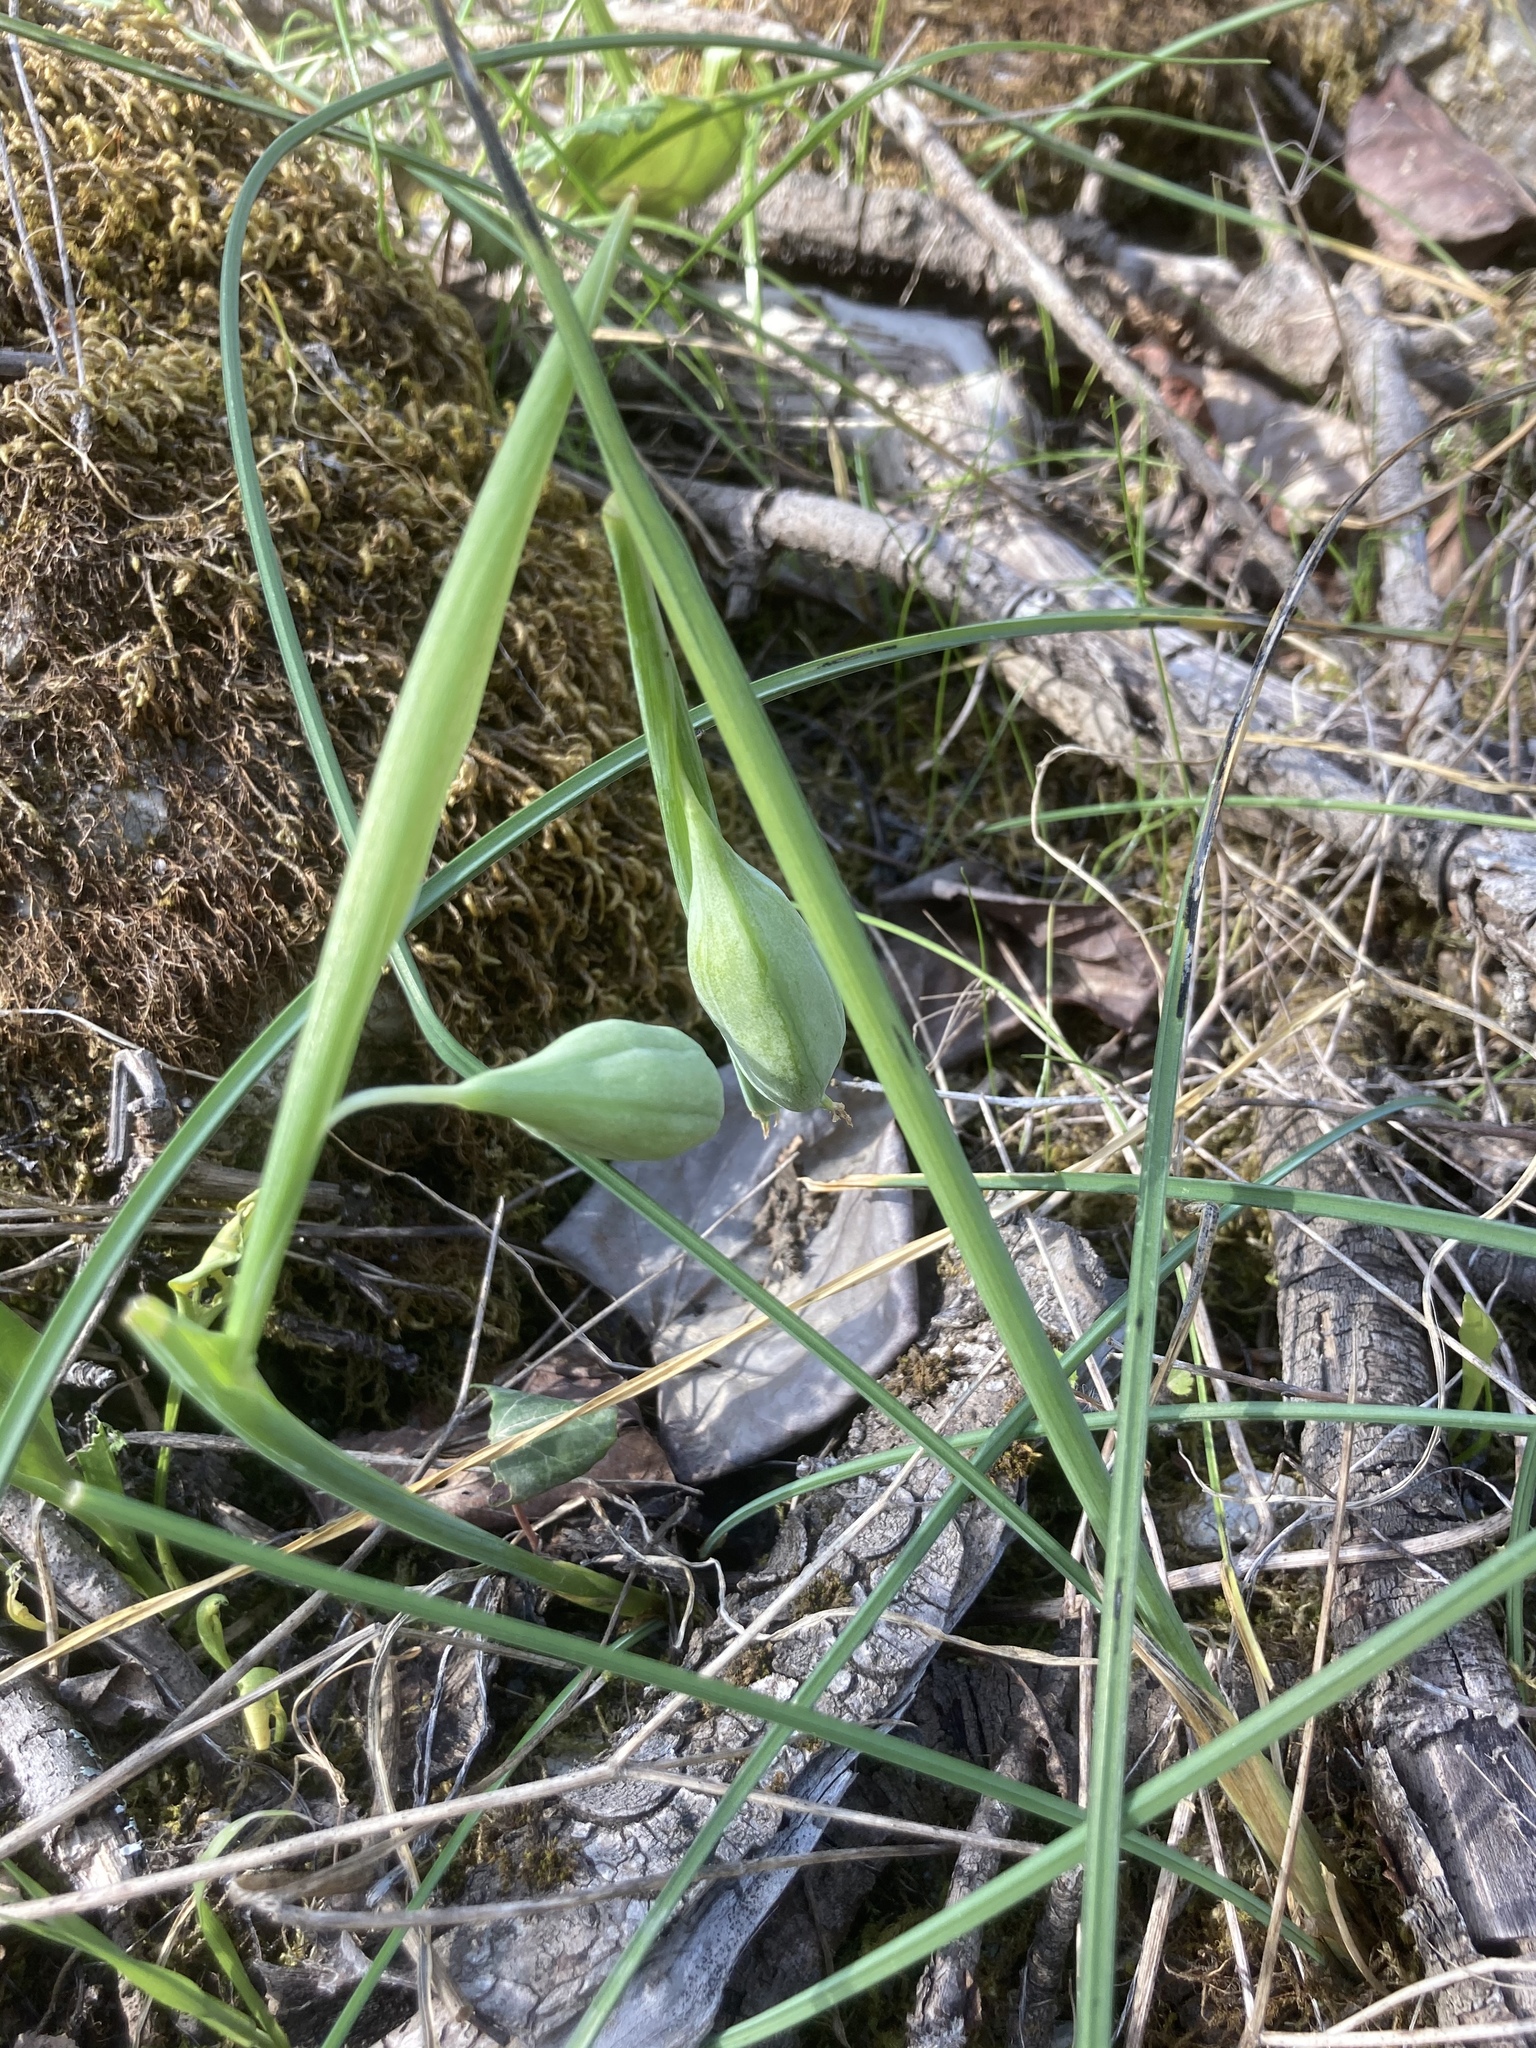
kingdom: Plantae
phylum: Tracheophyta
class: Liliopsida
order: Asparagales
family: Iridaceae
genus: Iris
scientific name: Iris tuberosa
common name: Snake's-head iris
